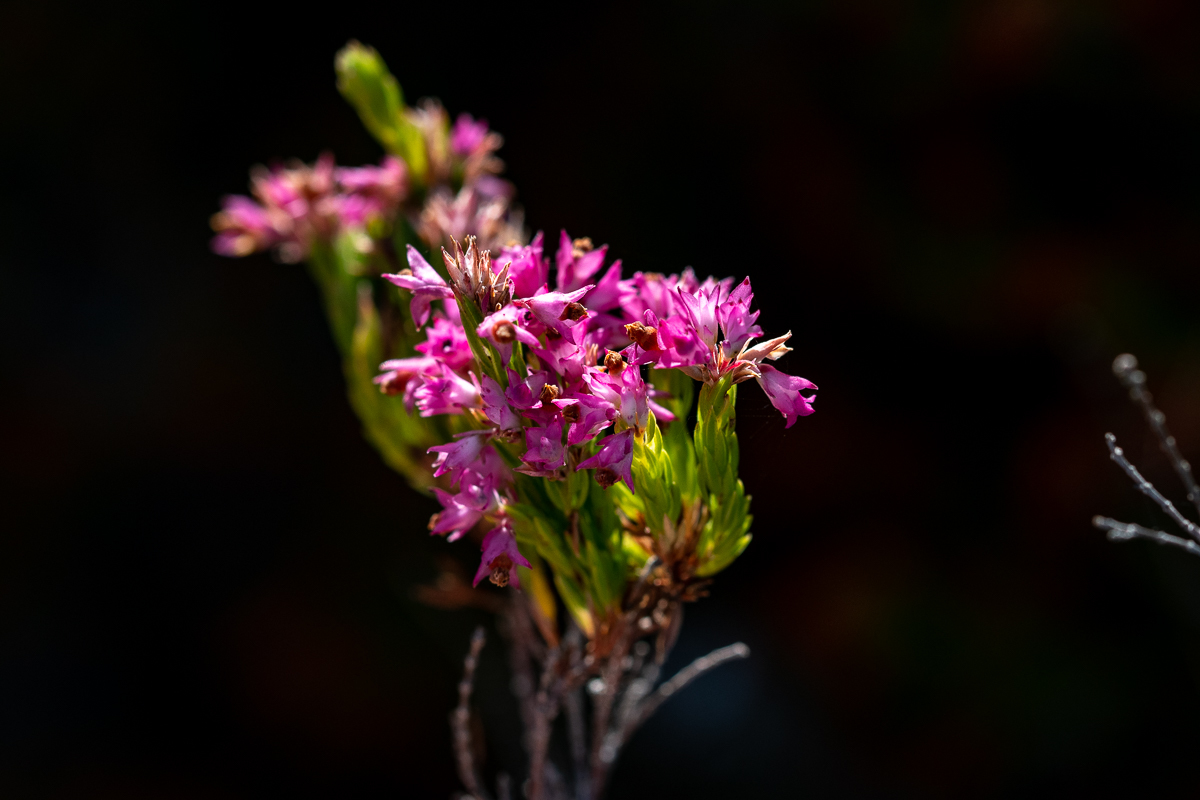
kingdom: Plantae
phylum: Tracheophyta
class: Magnoliopsida
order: Ericales
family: Ericaceae
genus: Erica
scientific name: Erica corifolia
